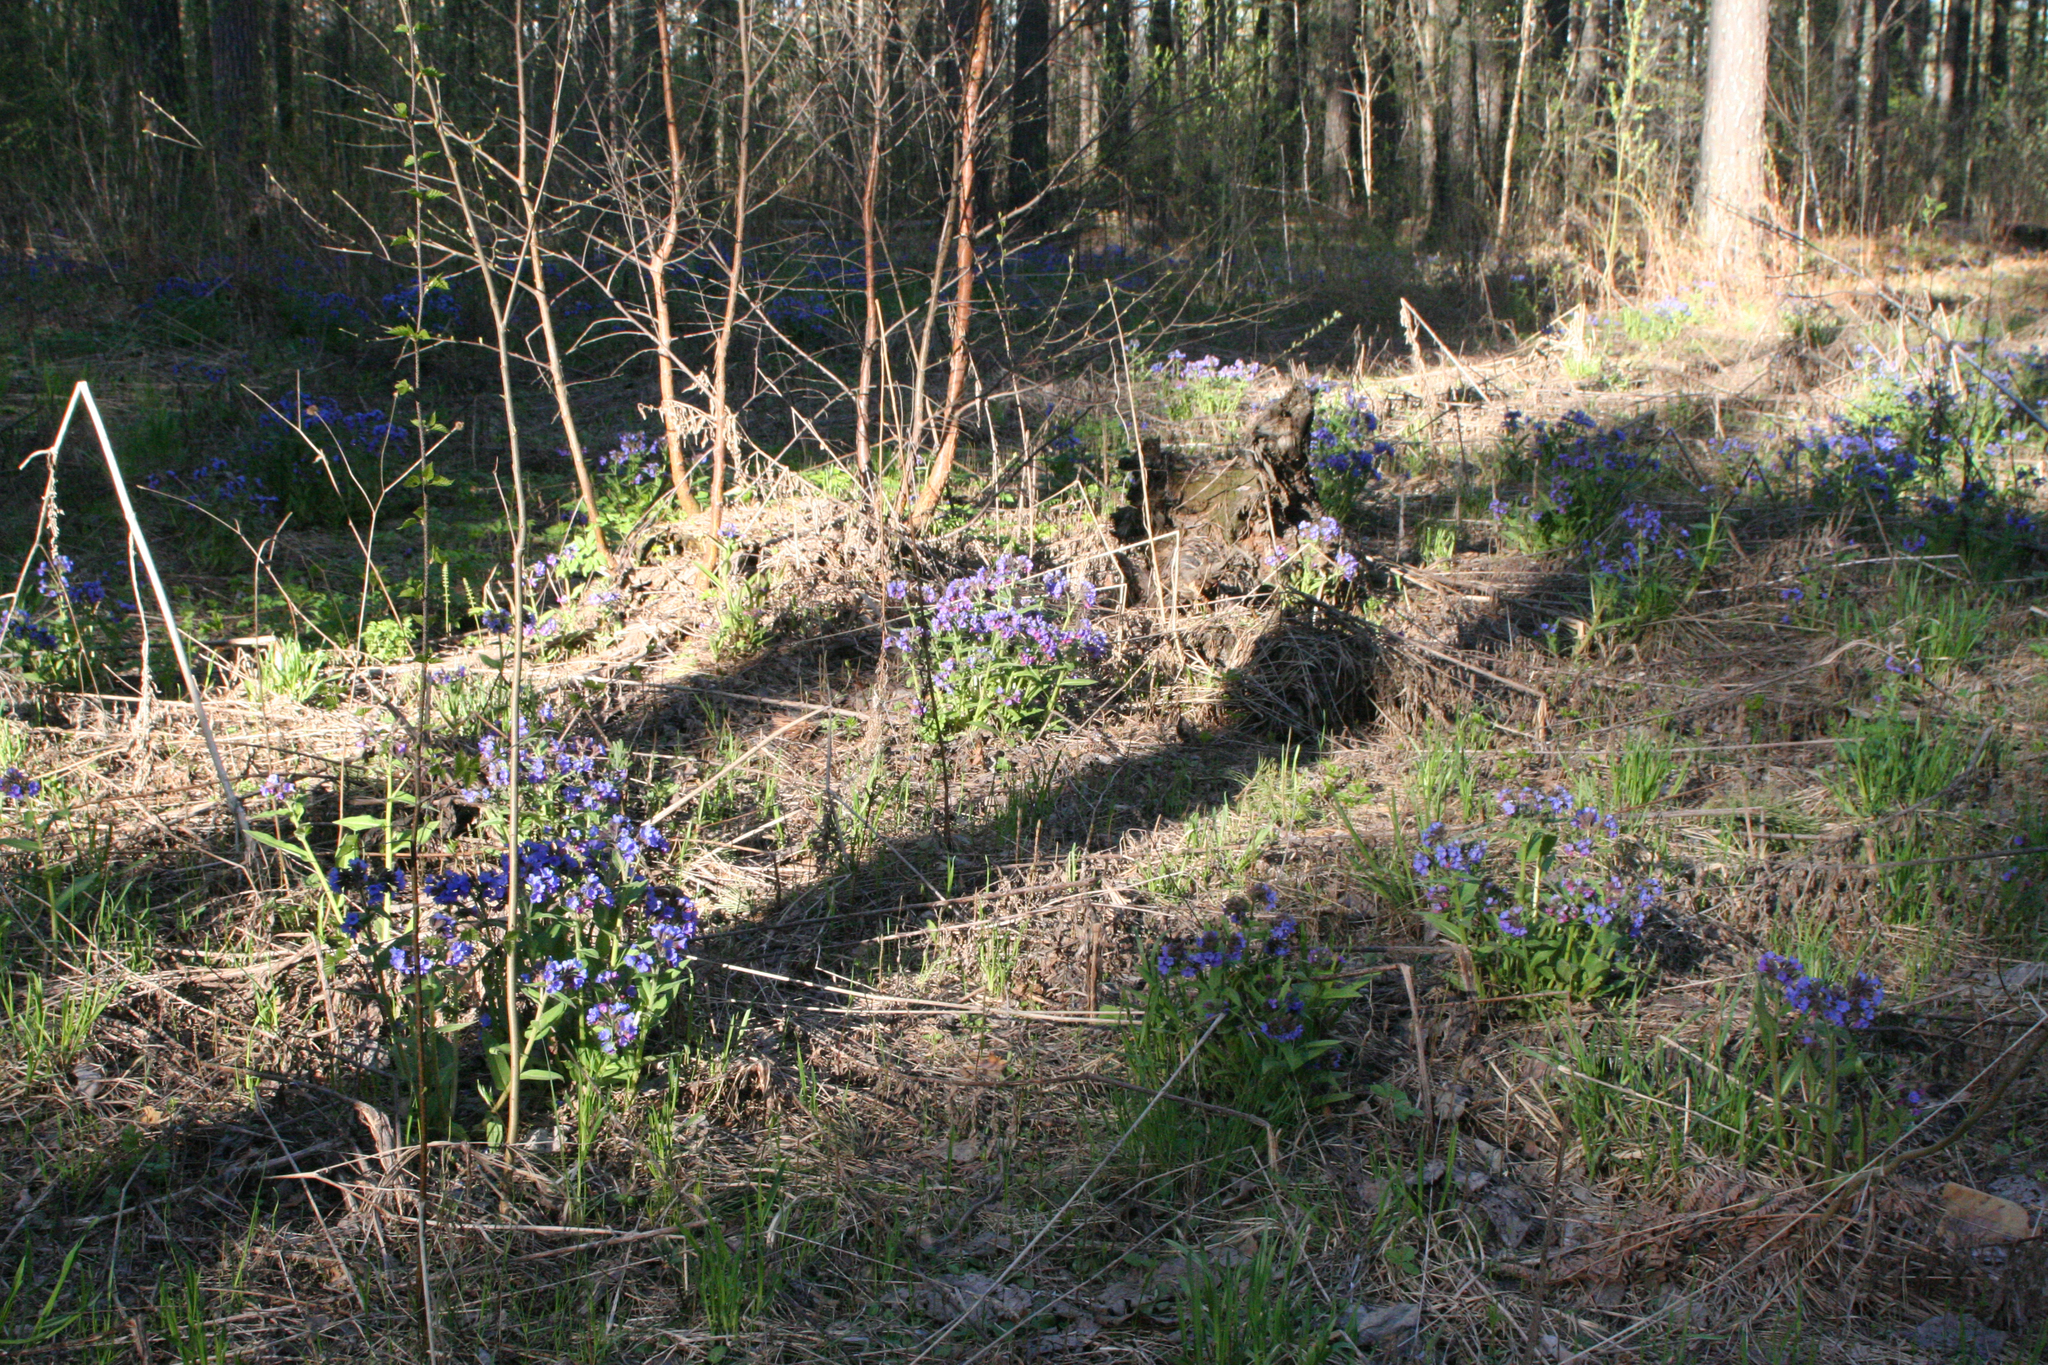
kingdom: Plantae
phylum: Tracheophyta
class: Magnoliopsida
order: Boraginales
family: Boraginaceae
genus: Pulmonaria
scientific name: Pulmonaria mollis
